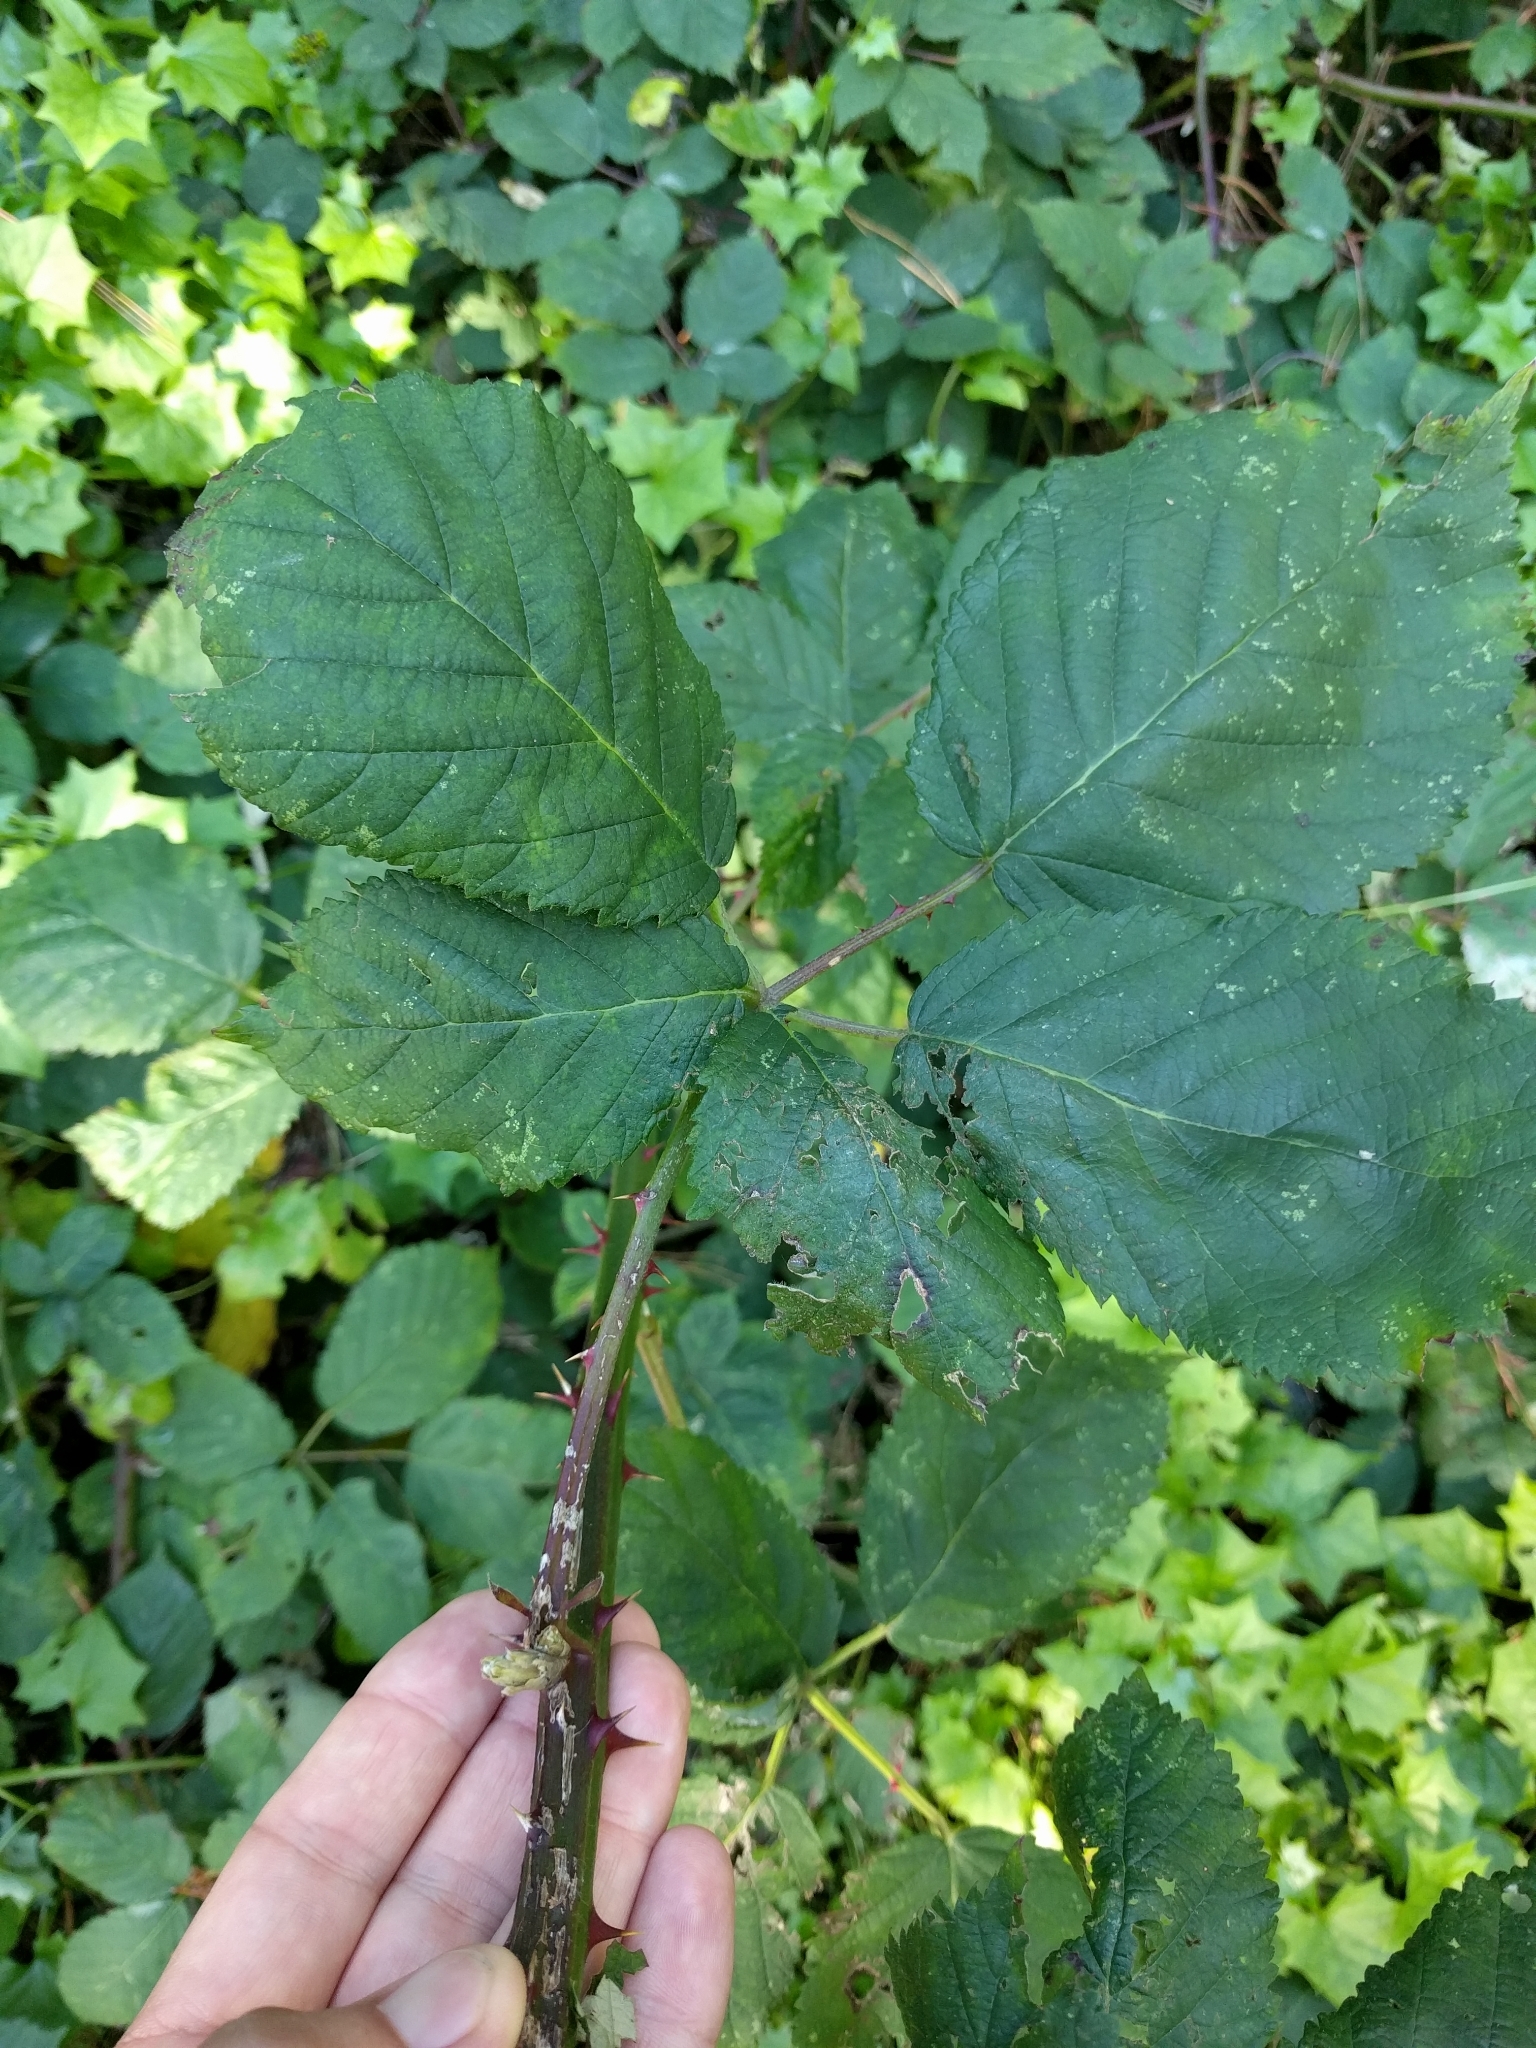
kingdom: Plantae
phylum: Tracheophyta
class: Magnoliopsida
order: Rosales
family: Rosaceae
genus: Rubus
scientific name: Rubus armeniacus
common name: Himalayan blackberry
